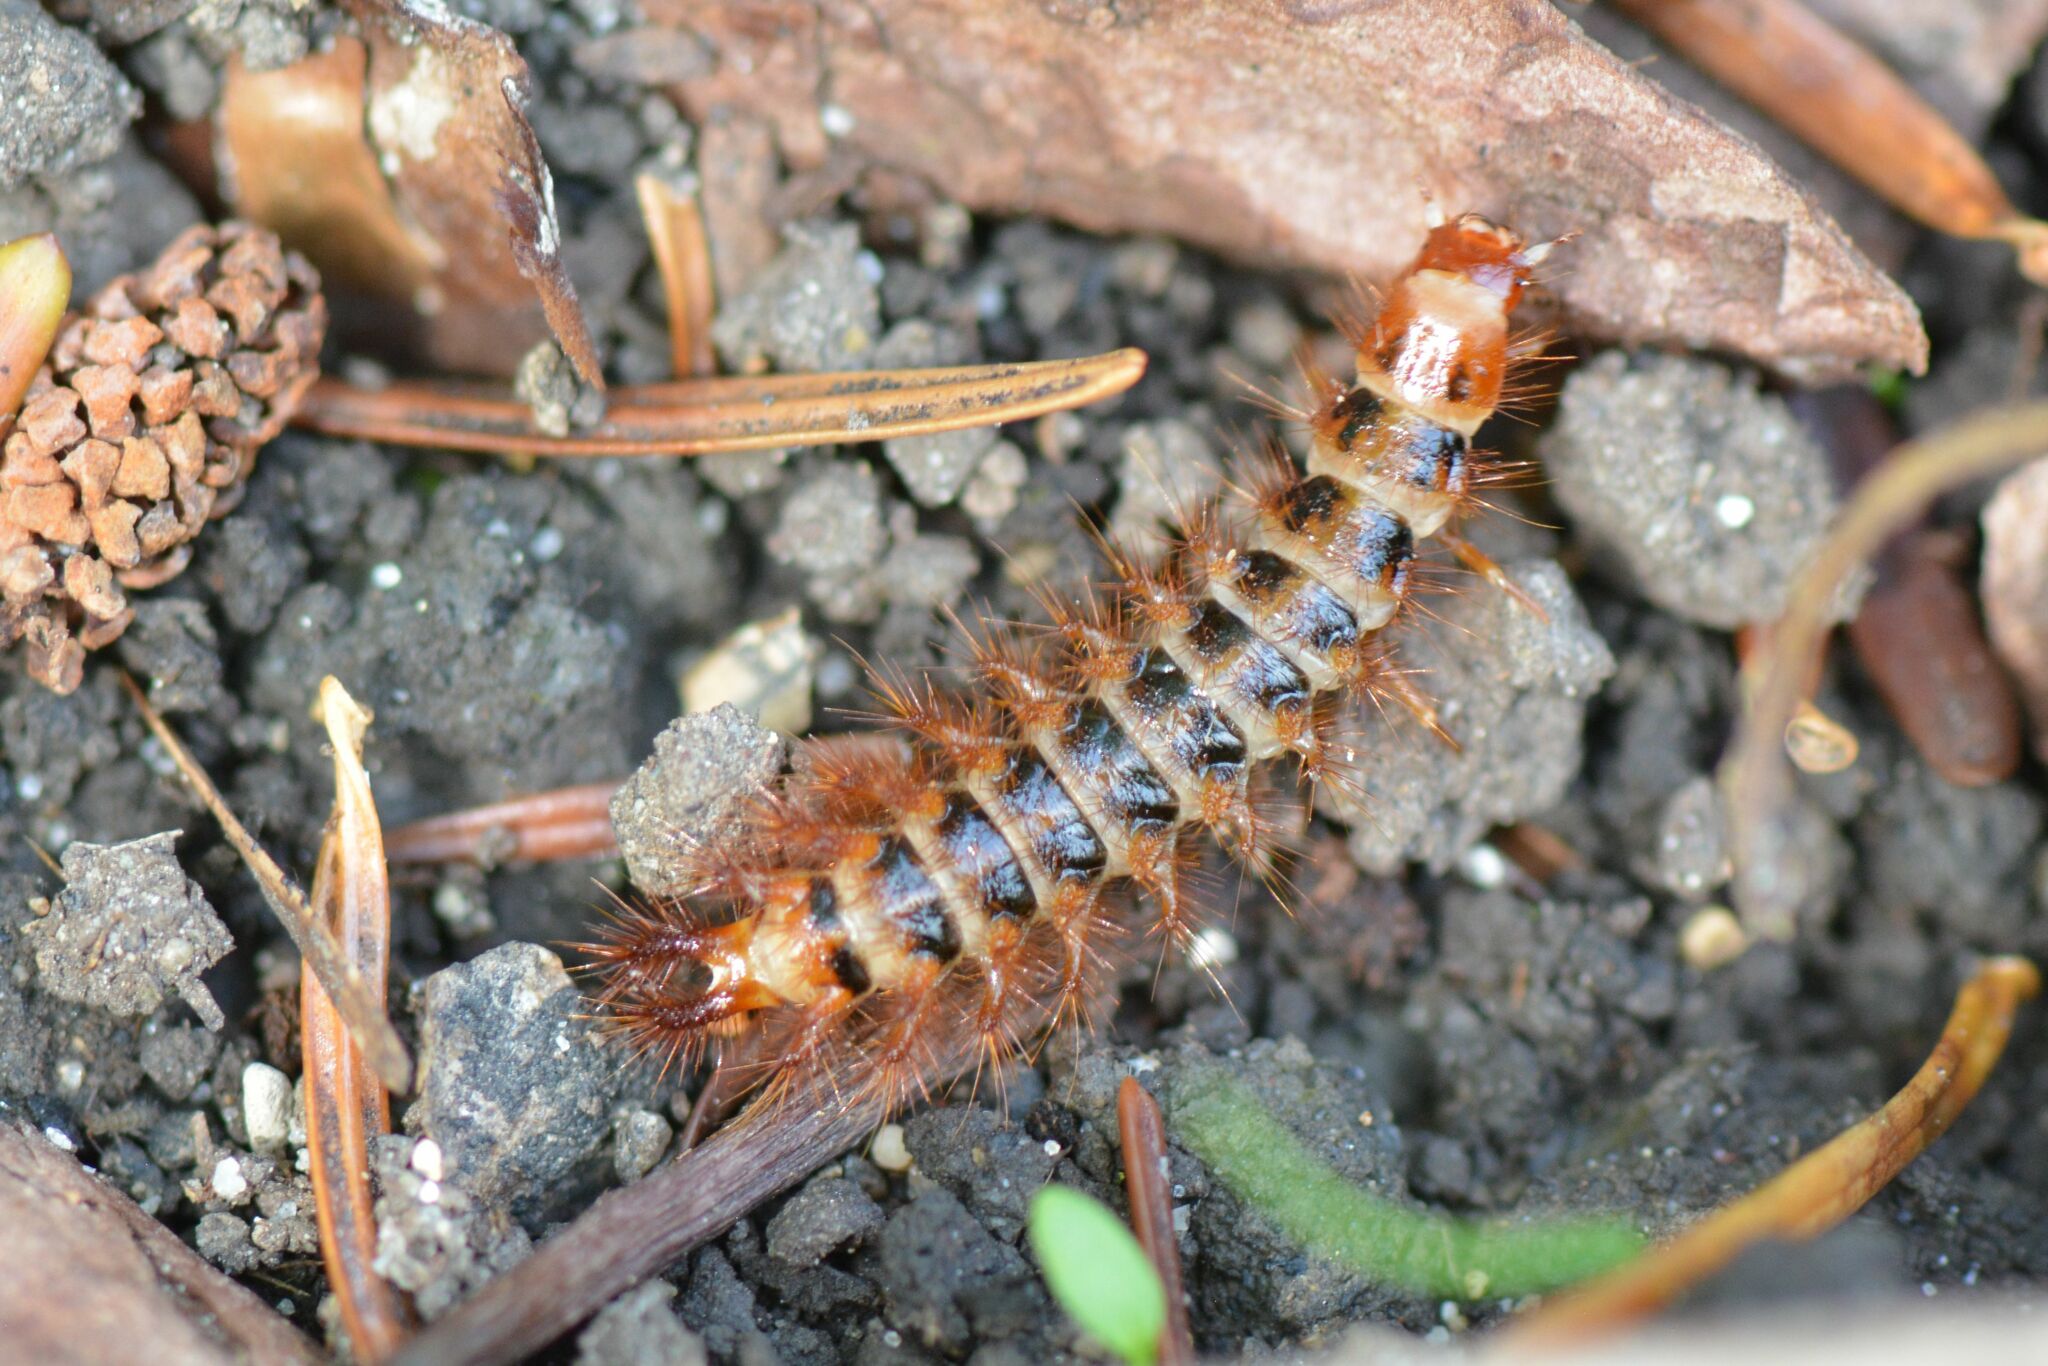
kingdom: Animalia
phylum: Arthropoda
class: Insecta
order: Coleoptera
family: Drilidae
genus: Drilus
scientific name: Drilus flavescens
